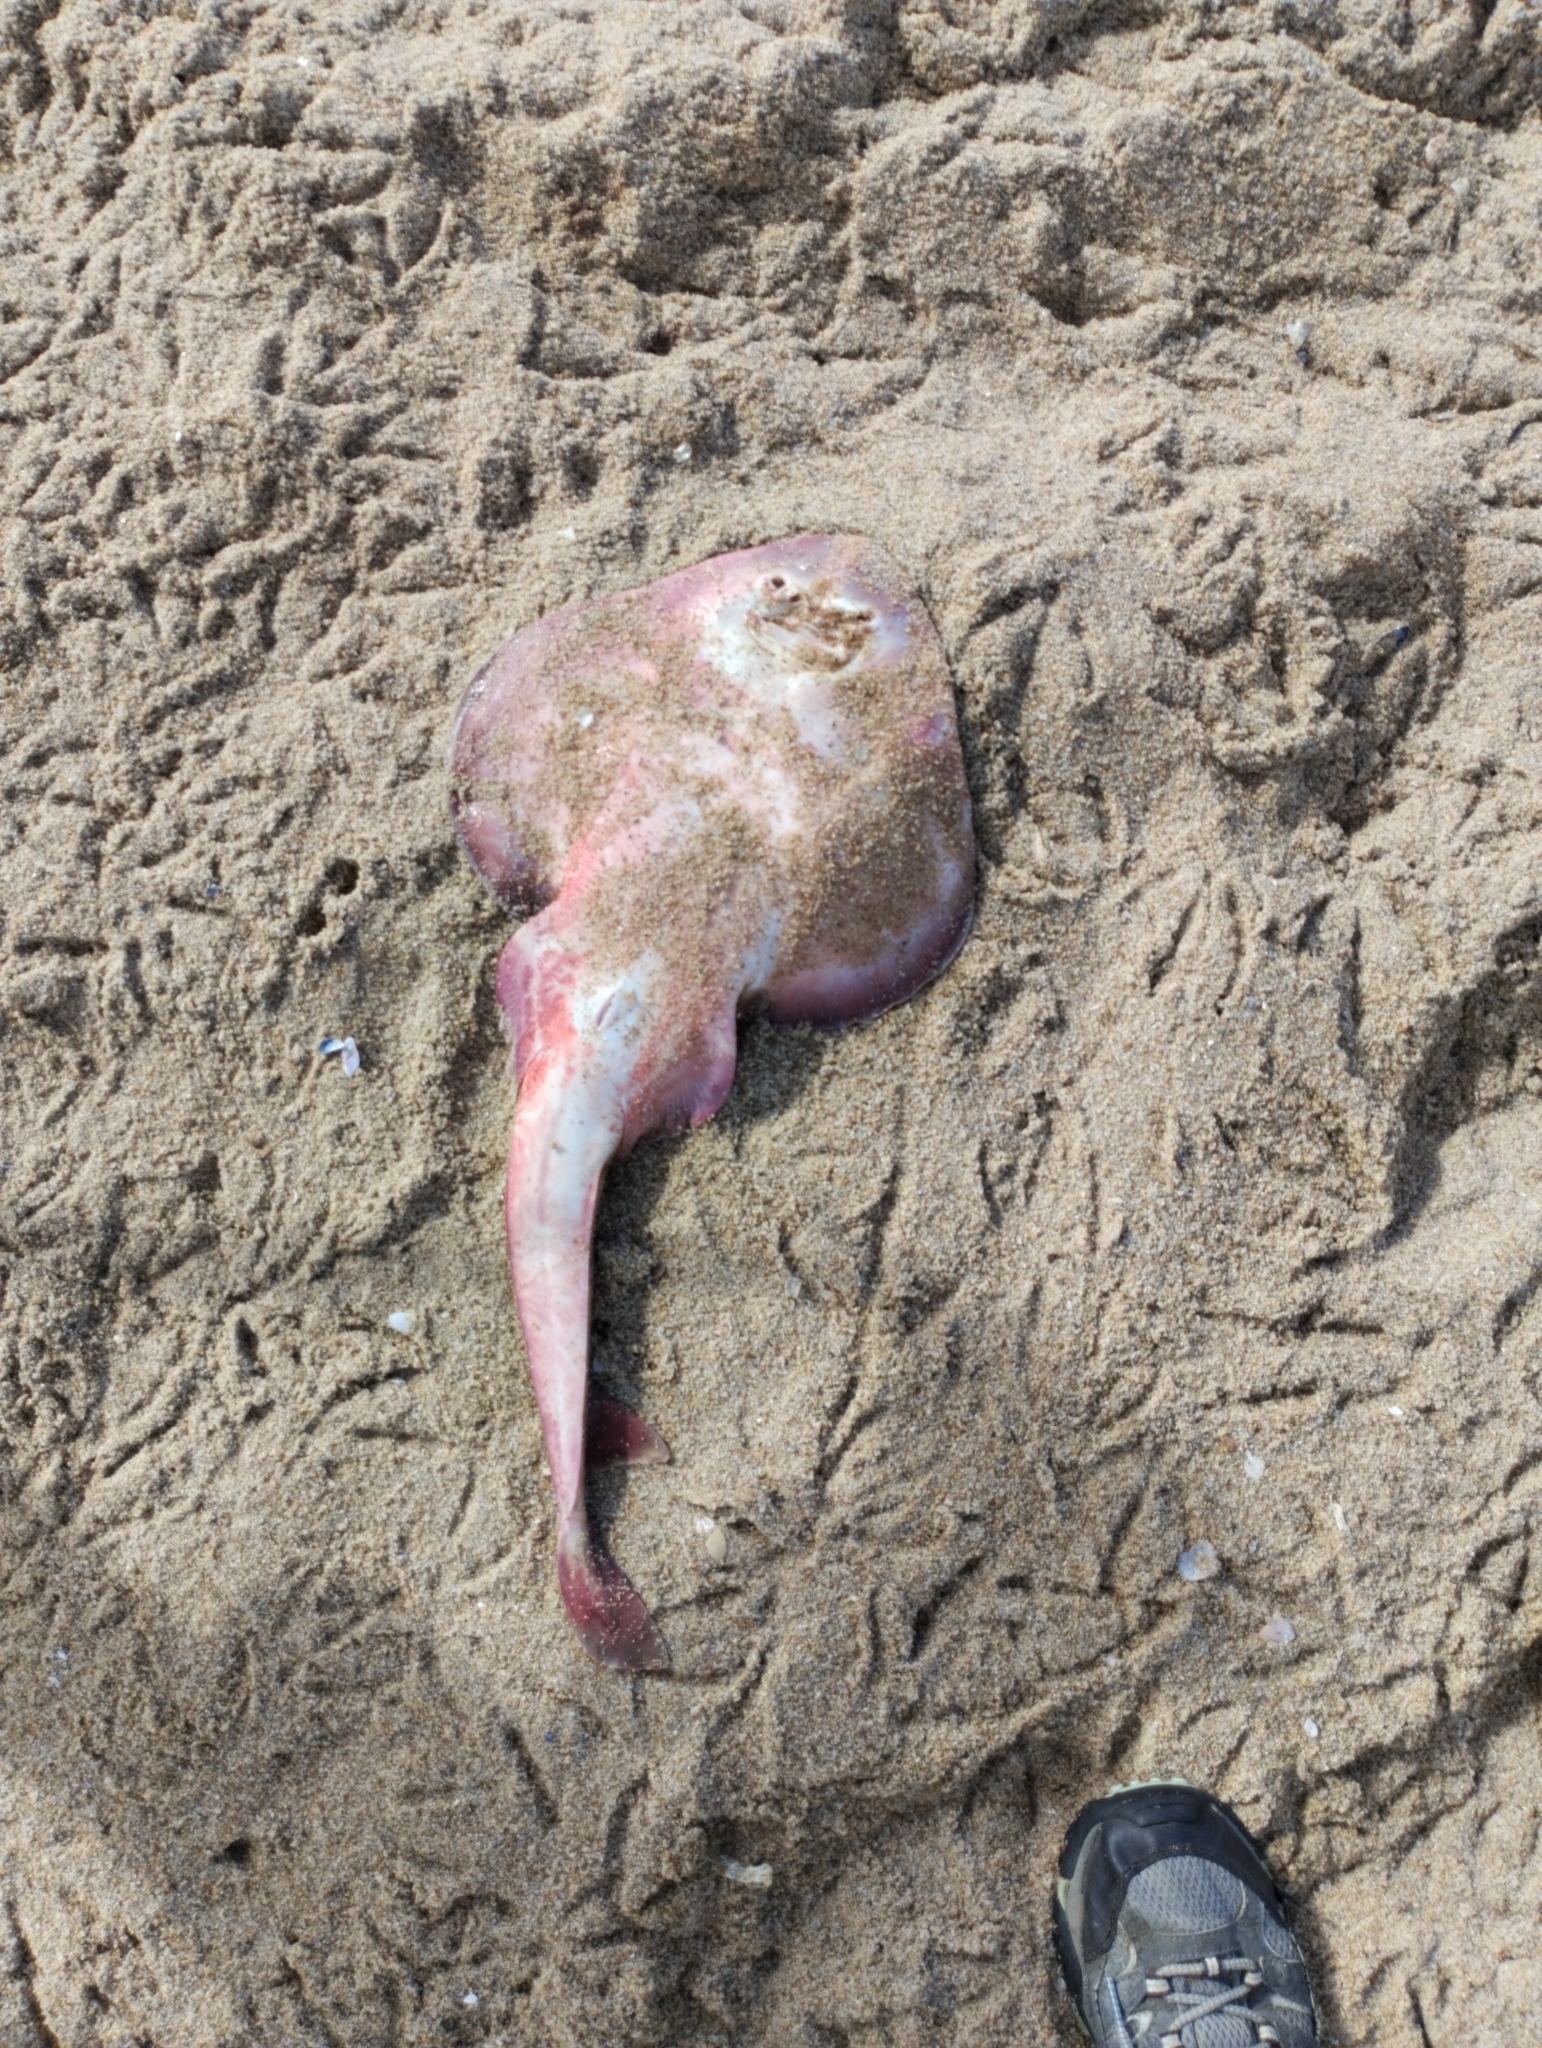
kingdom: Animalia
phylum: Chordata
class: Elasmobranchii
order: Rhinopristiformes
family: Rhinobatidae
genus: Zapteryx
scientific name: Zapteryx brevirostris
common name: Lesser guitarfish
